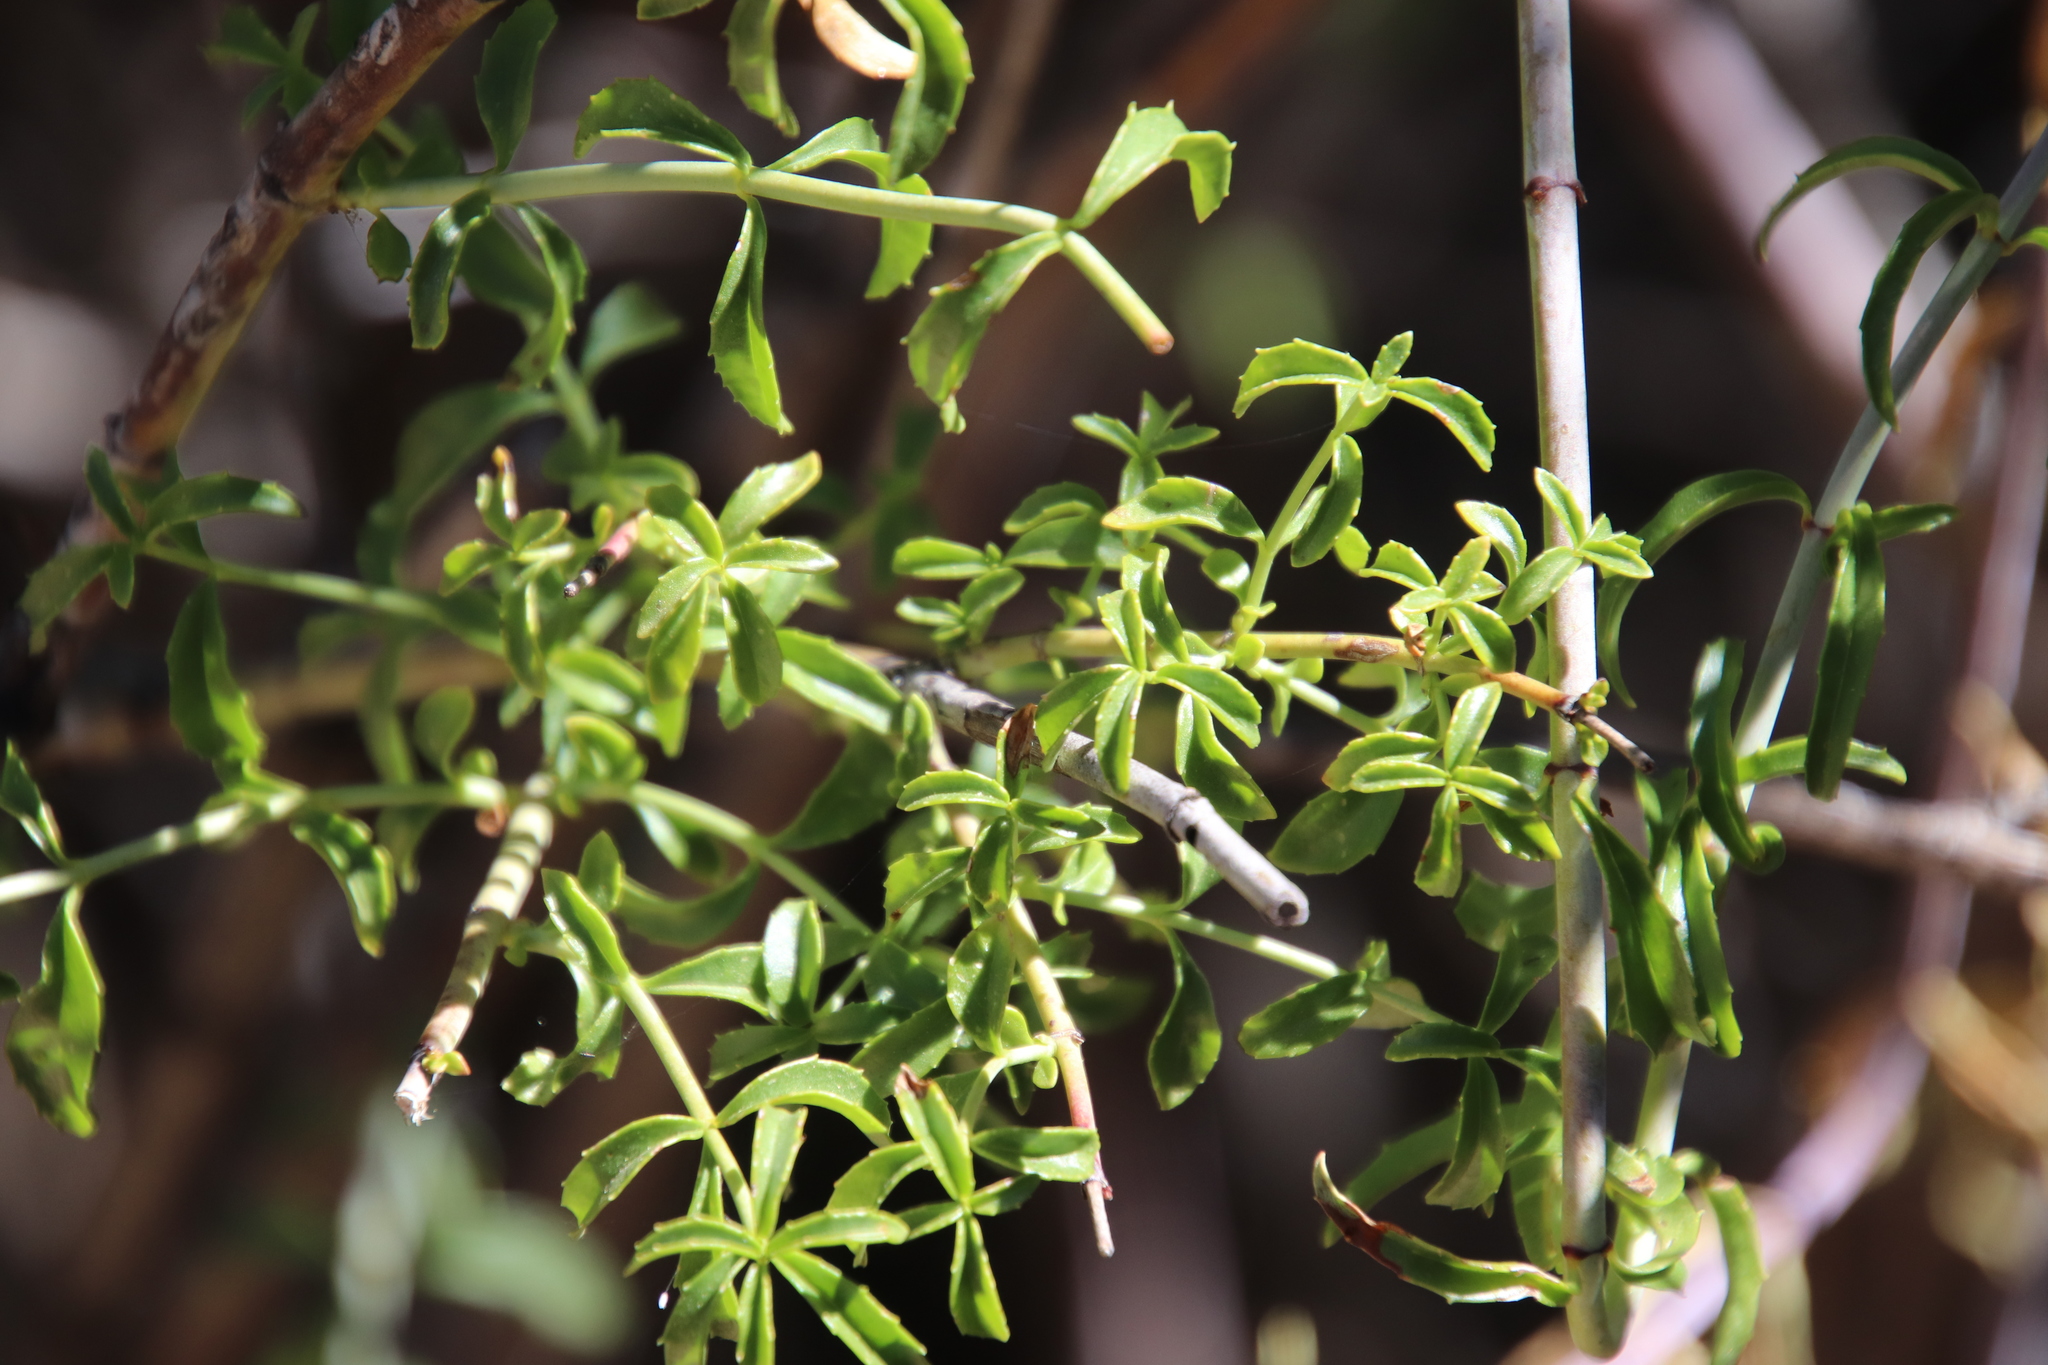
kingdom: Plantae
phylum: Tracheophyta
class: Magnoliopsida
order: Lamiales
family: Plantaginaceae
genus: Keckiella
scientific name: Keckiella ternata
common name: Scarlet keckiella
